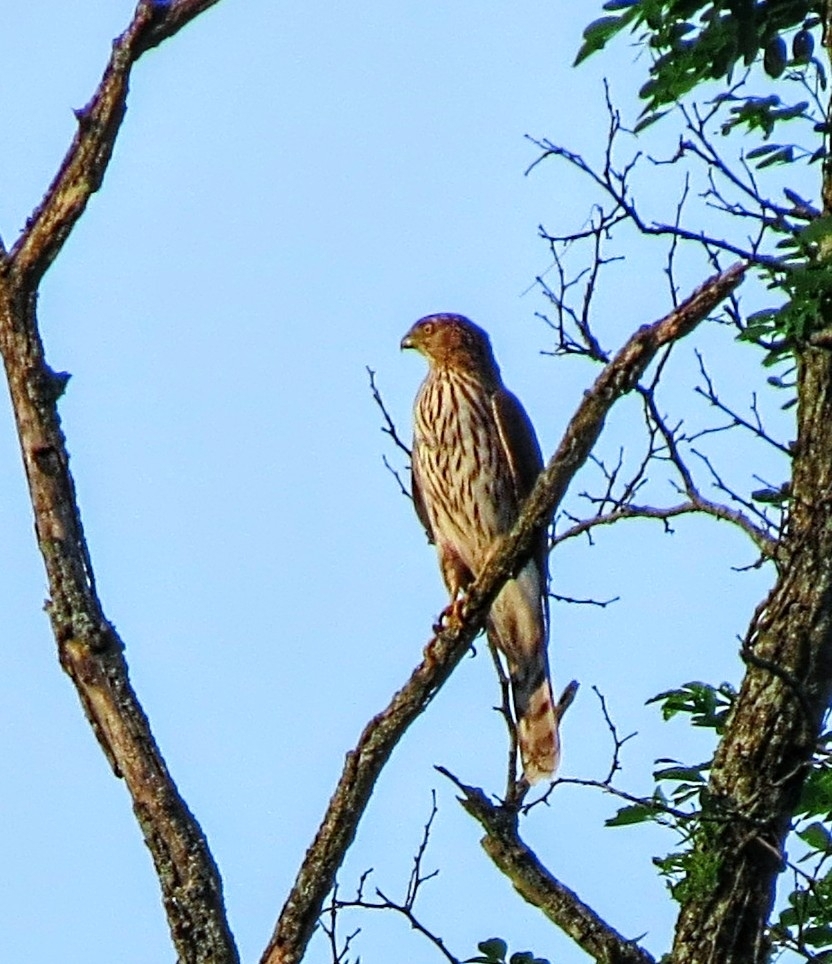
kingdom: Animalia
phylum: Chordata
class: Aves
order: Accipitriformes
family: Accipitridae
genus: Accipiter
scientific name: Accipiter cooperii
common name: Cooper's hawk
